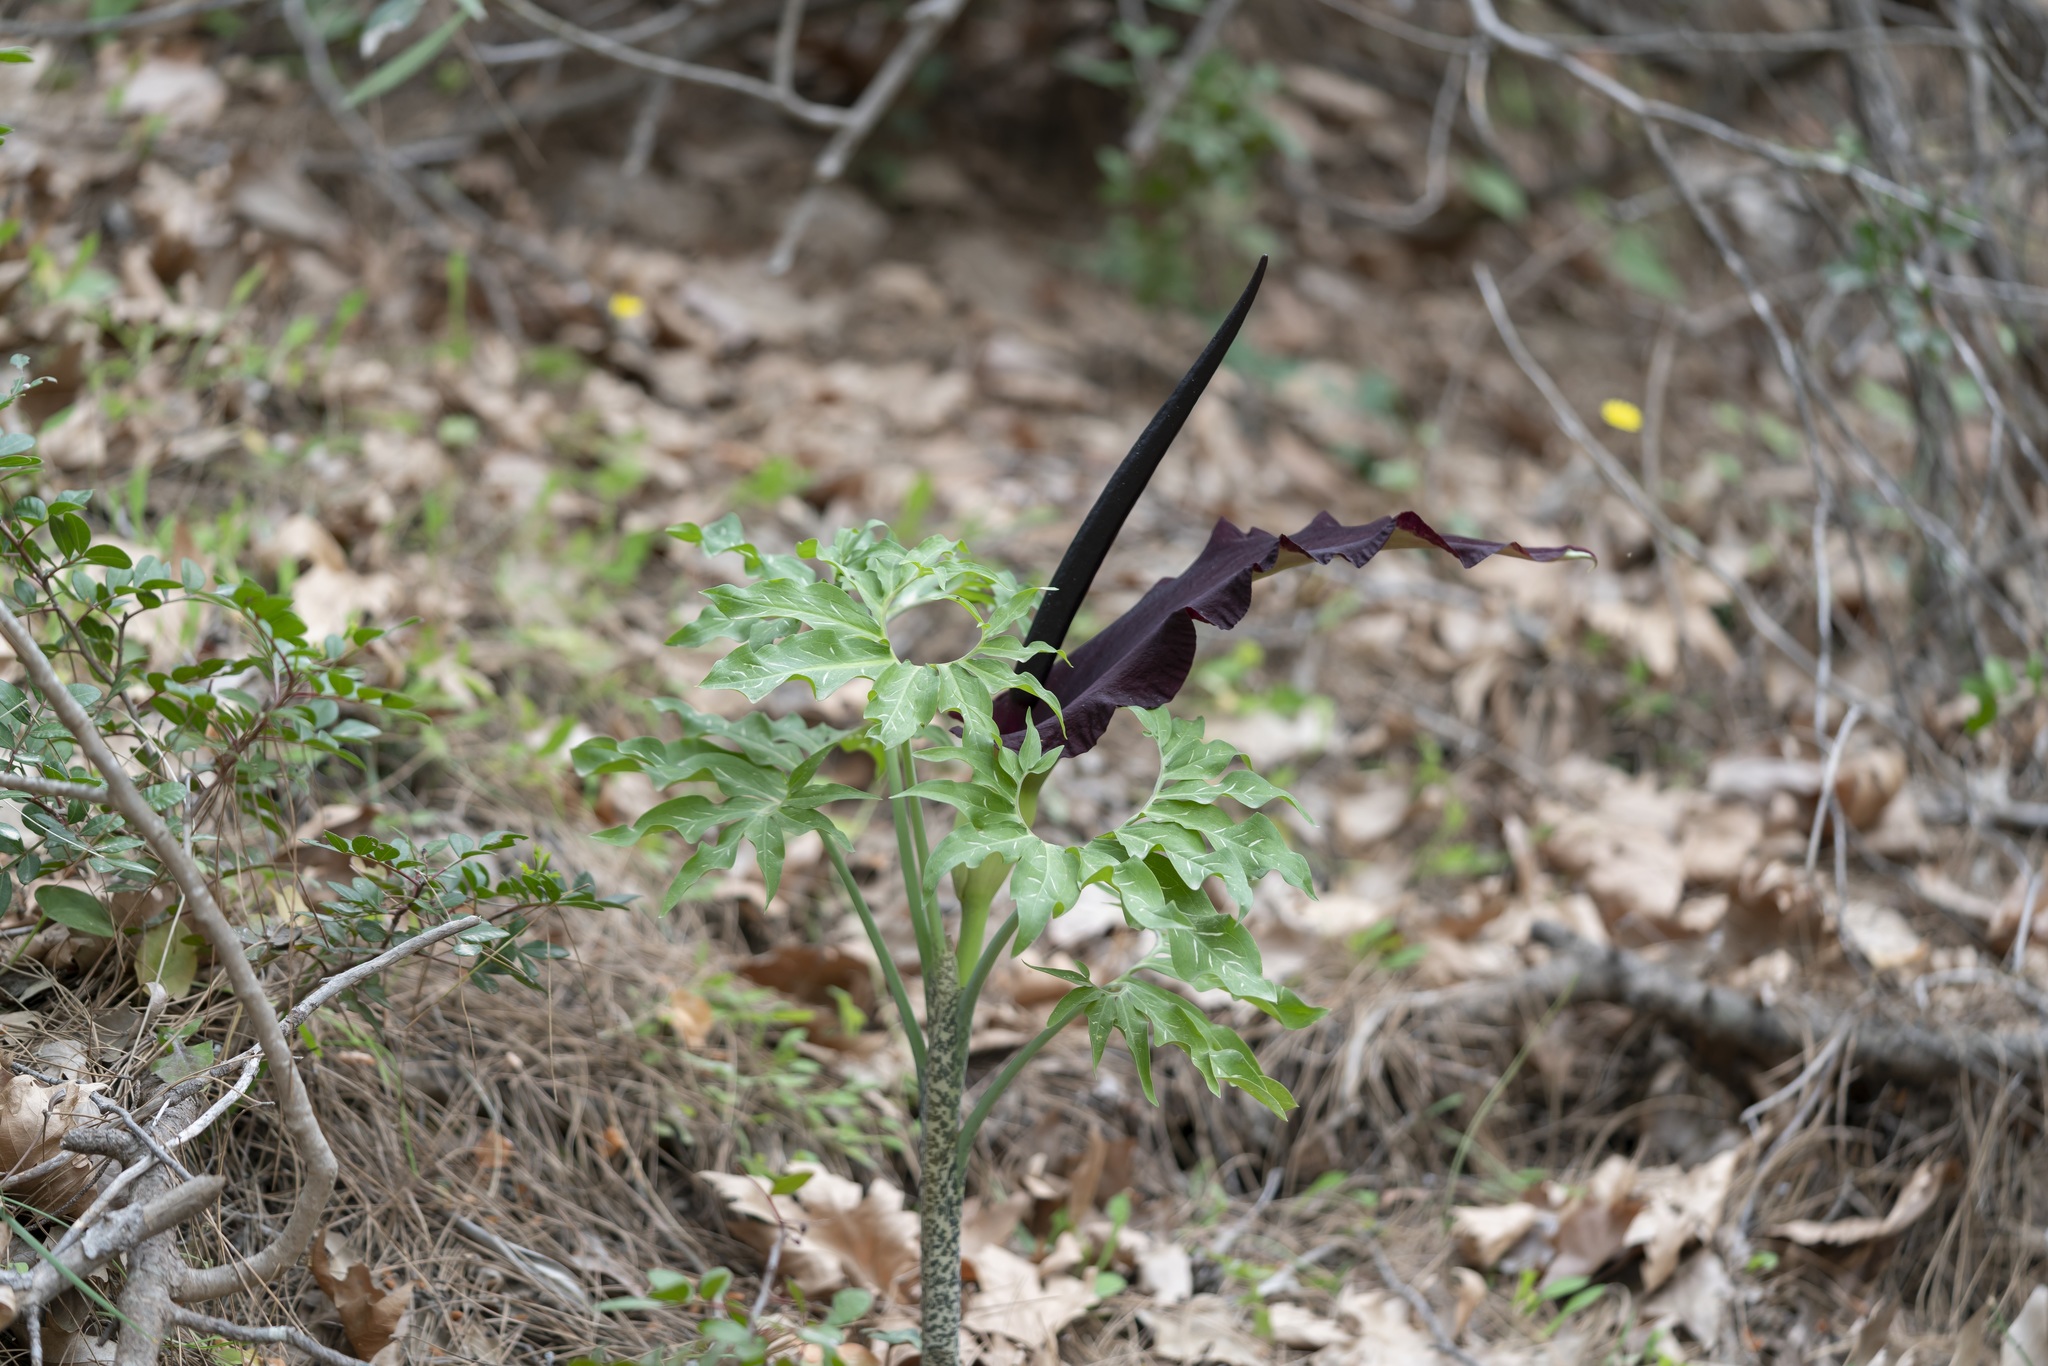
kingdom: Plantae
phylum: Tracheophyta
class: Liliopsida
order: Alismatales
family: Araceae
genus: Dracunculus
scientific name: Dracunculus vulgaris
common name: Dragon arum
